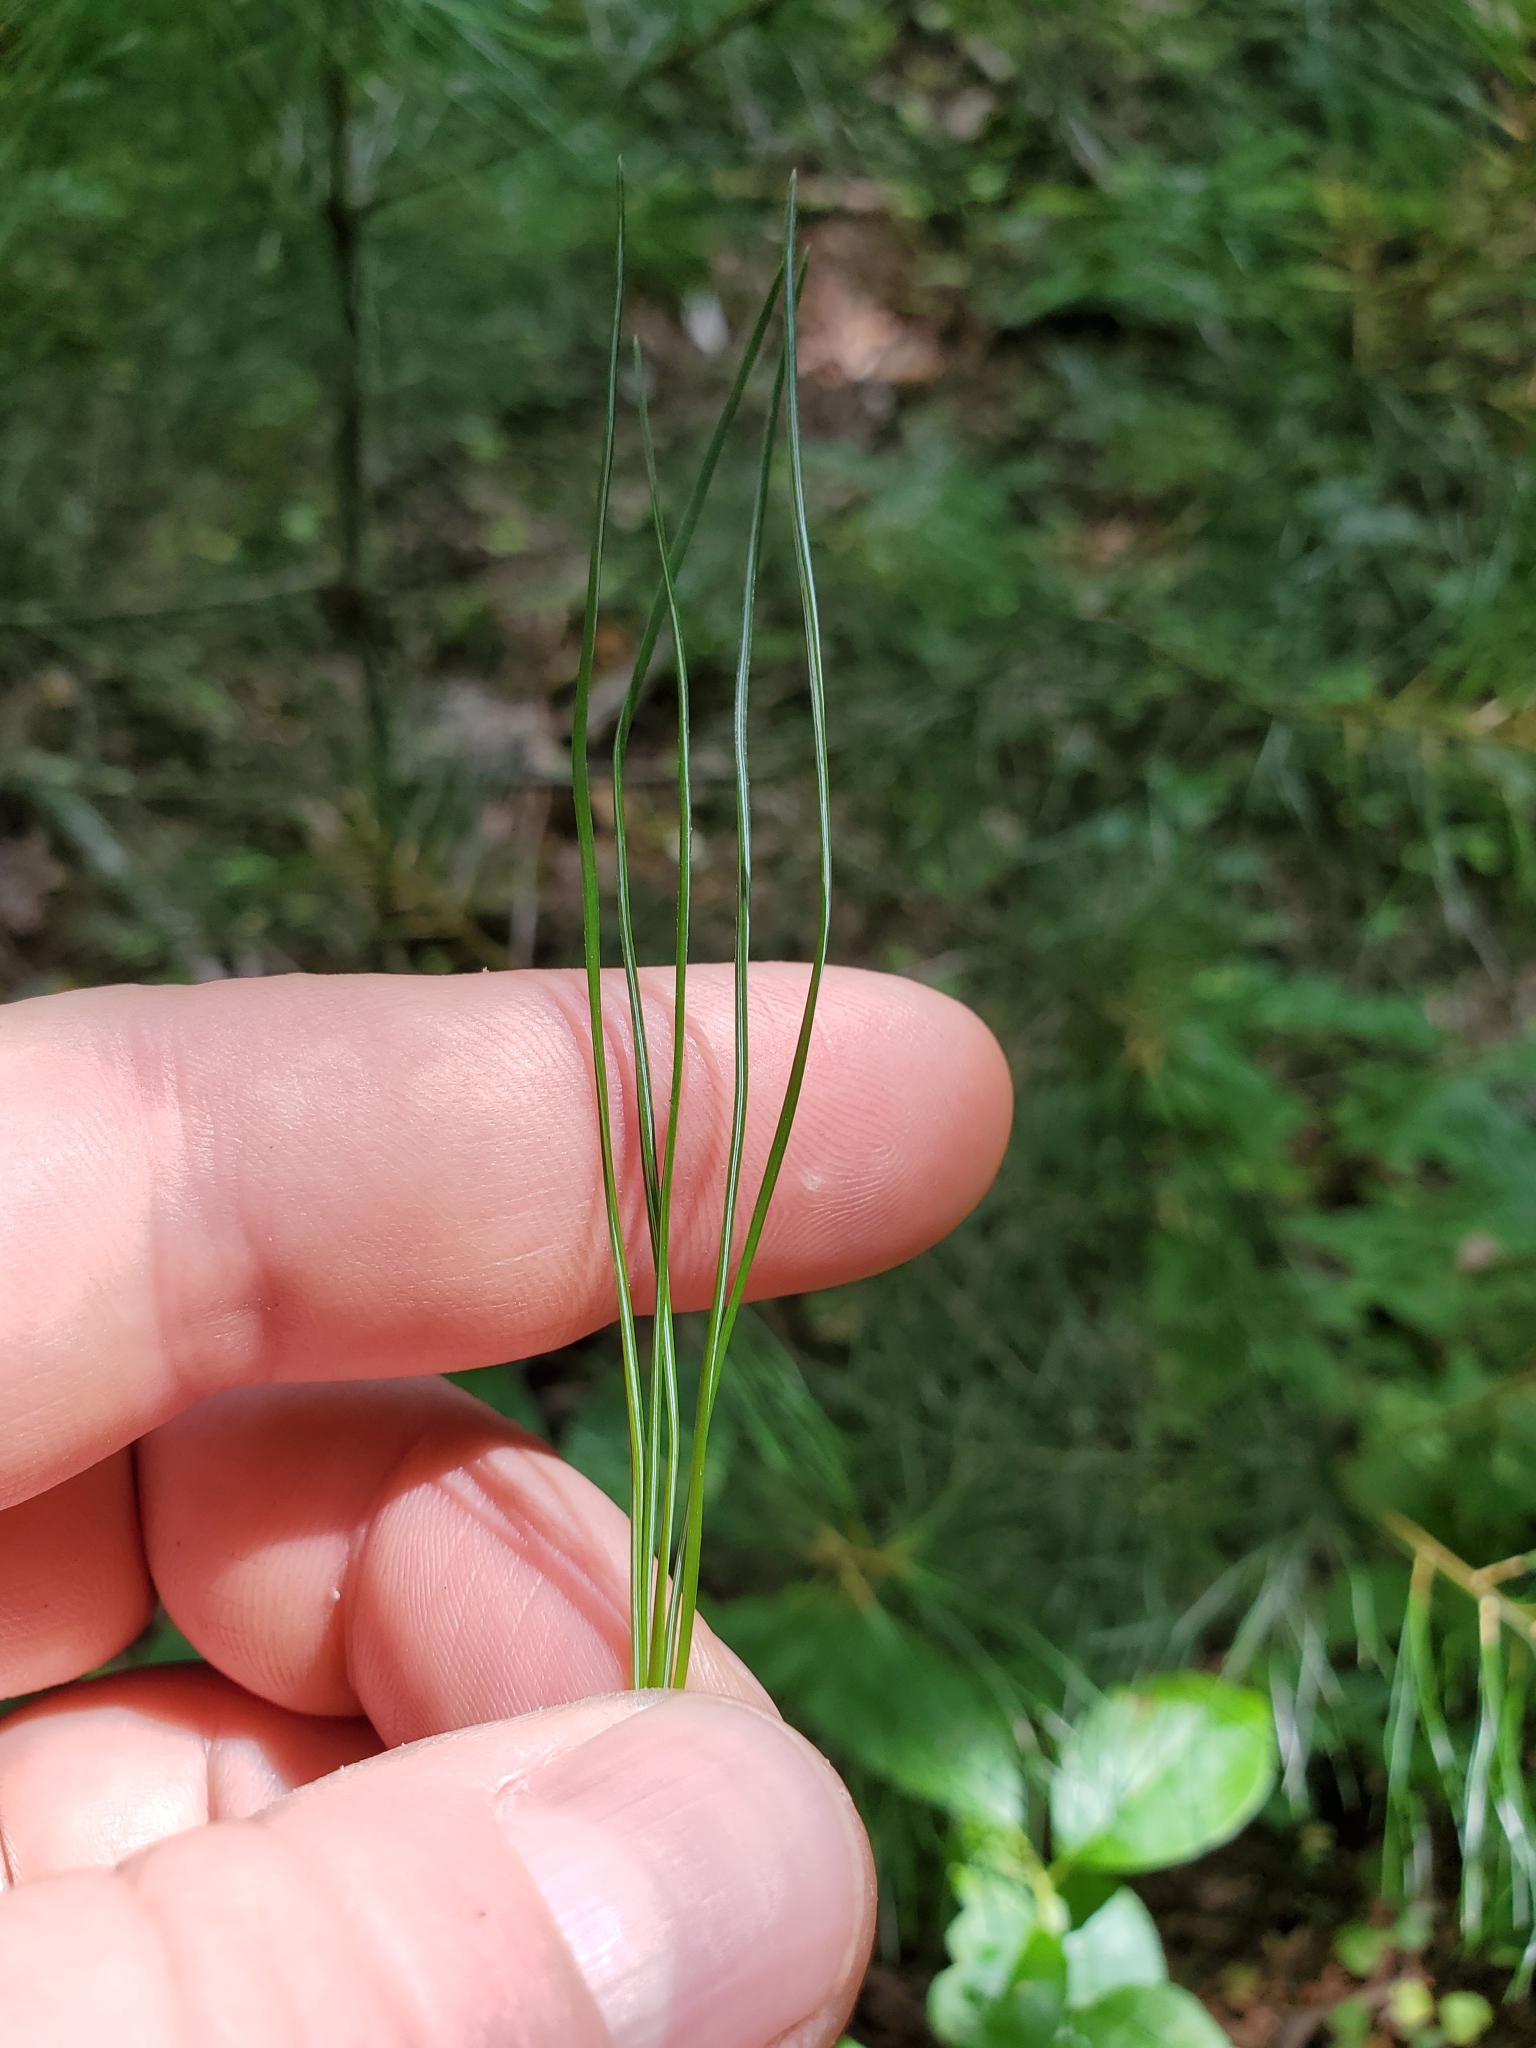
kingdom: Plantae
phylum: Tracheophyta
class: Pinopsida
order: Pinales
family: Pinaceae
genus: Pinus
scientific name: Pinus strobus
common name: Weymouth pine
